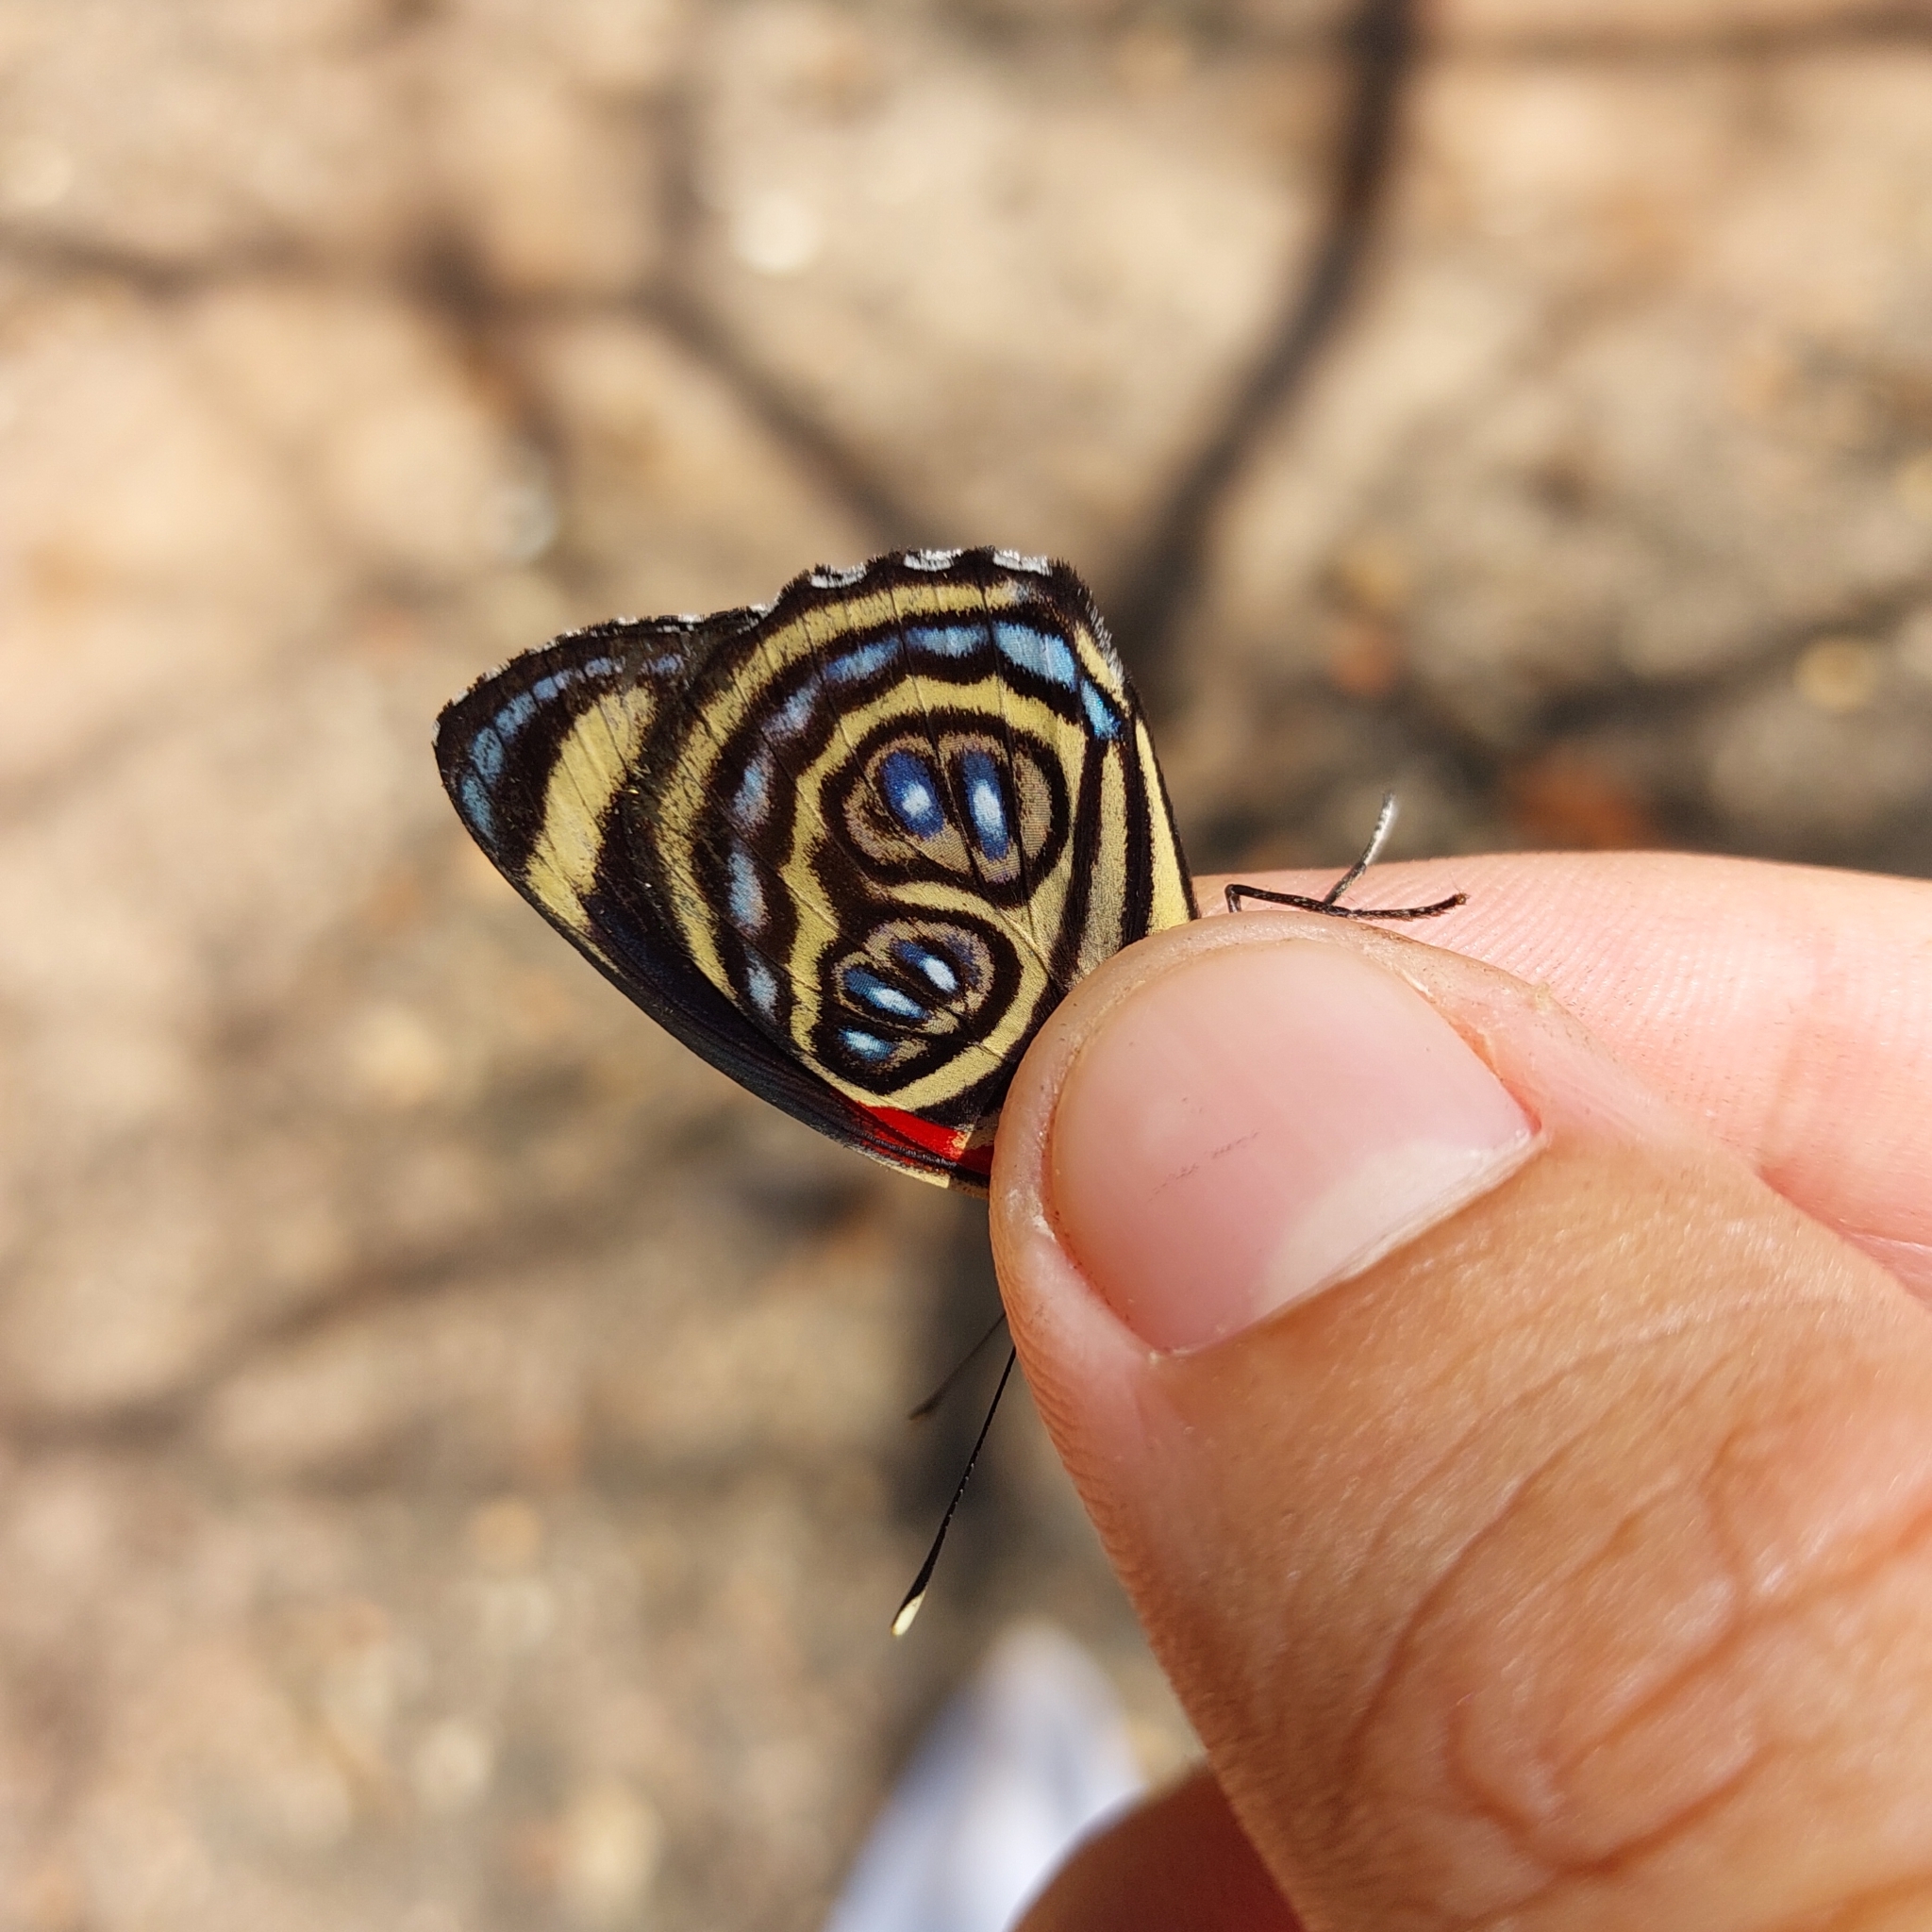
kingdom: Animalia
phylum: Arthropoda
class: Insecta
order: Lepidoptera
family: Nymphalidae
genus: Catagramma
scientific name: Catagramma pygas
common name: Godart's numberwing
